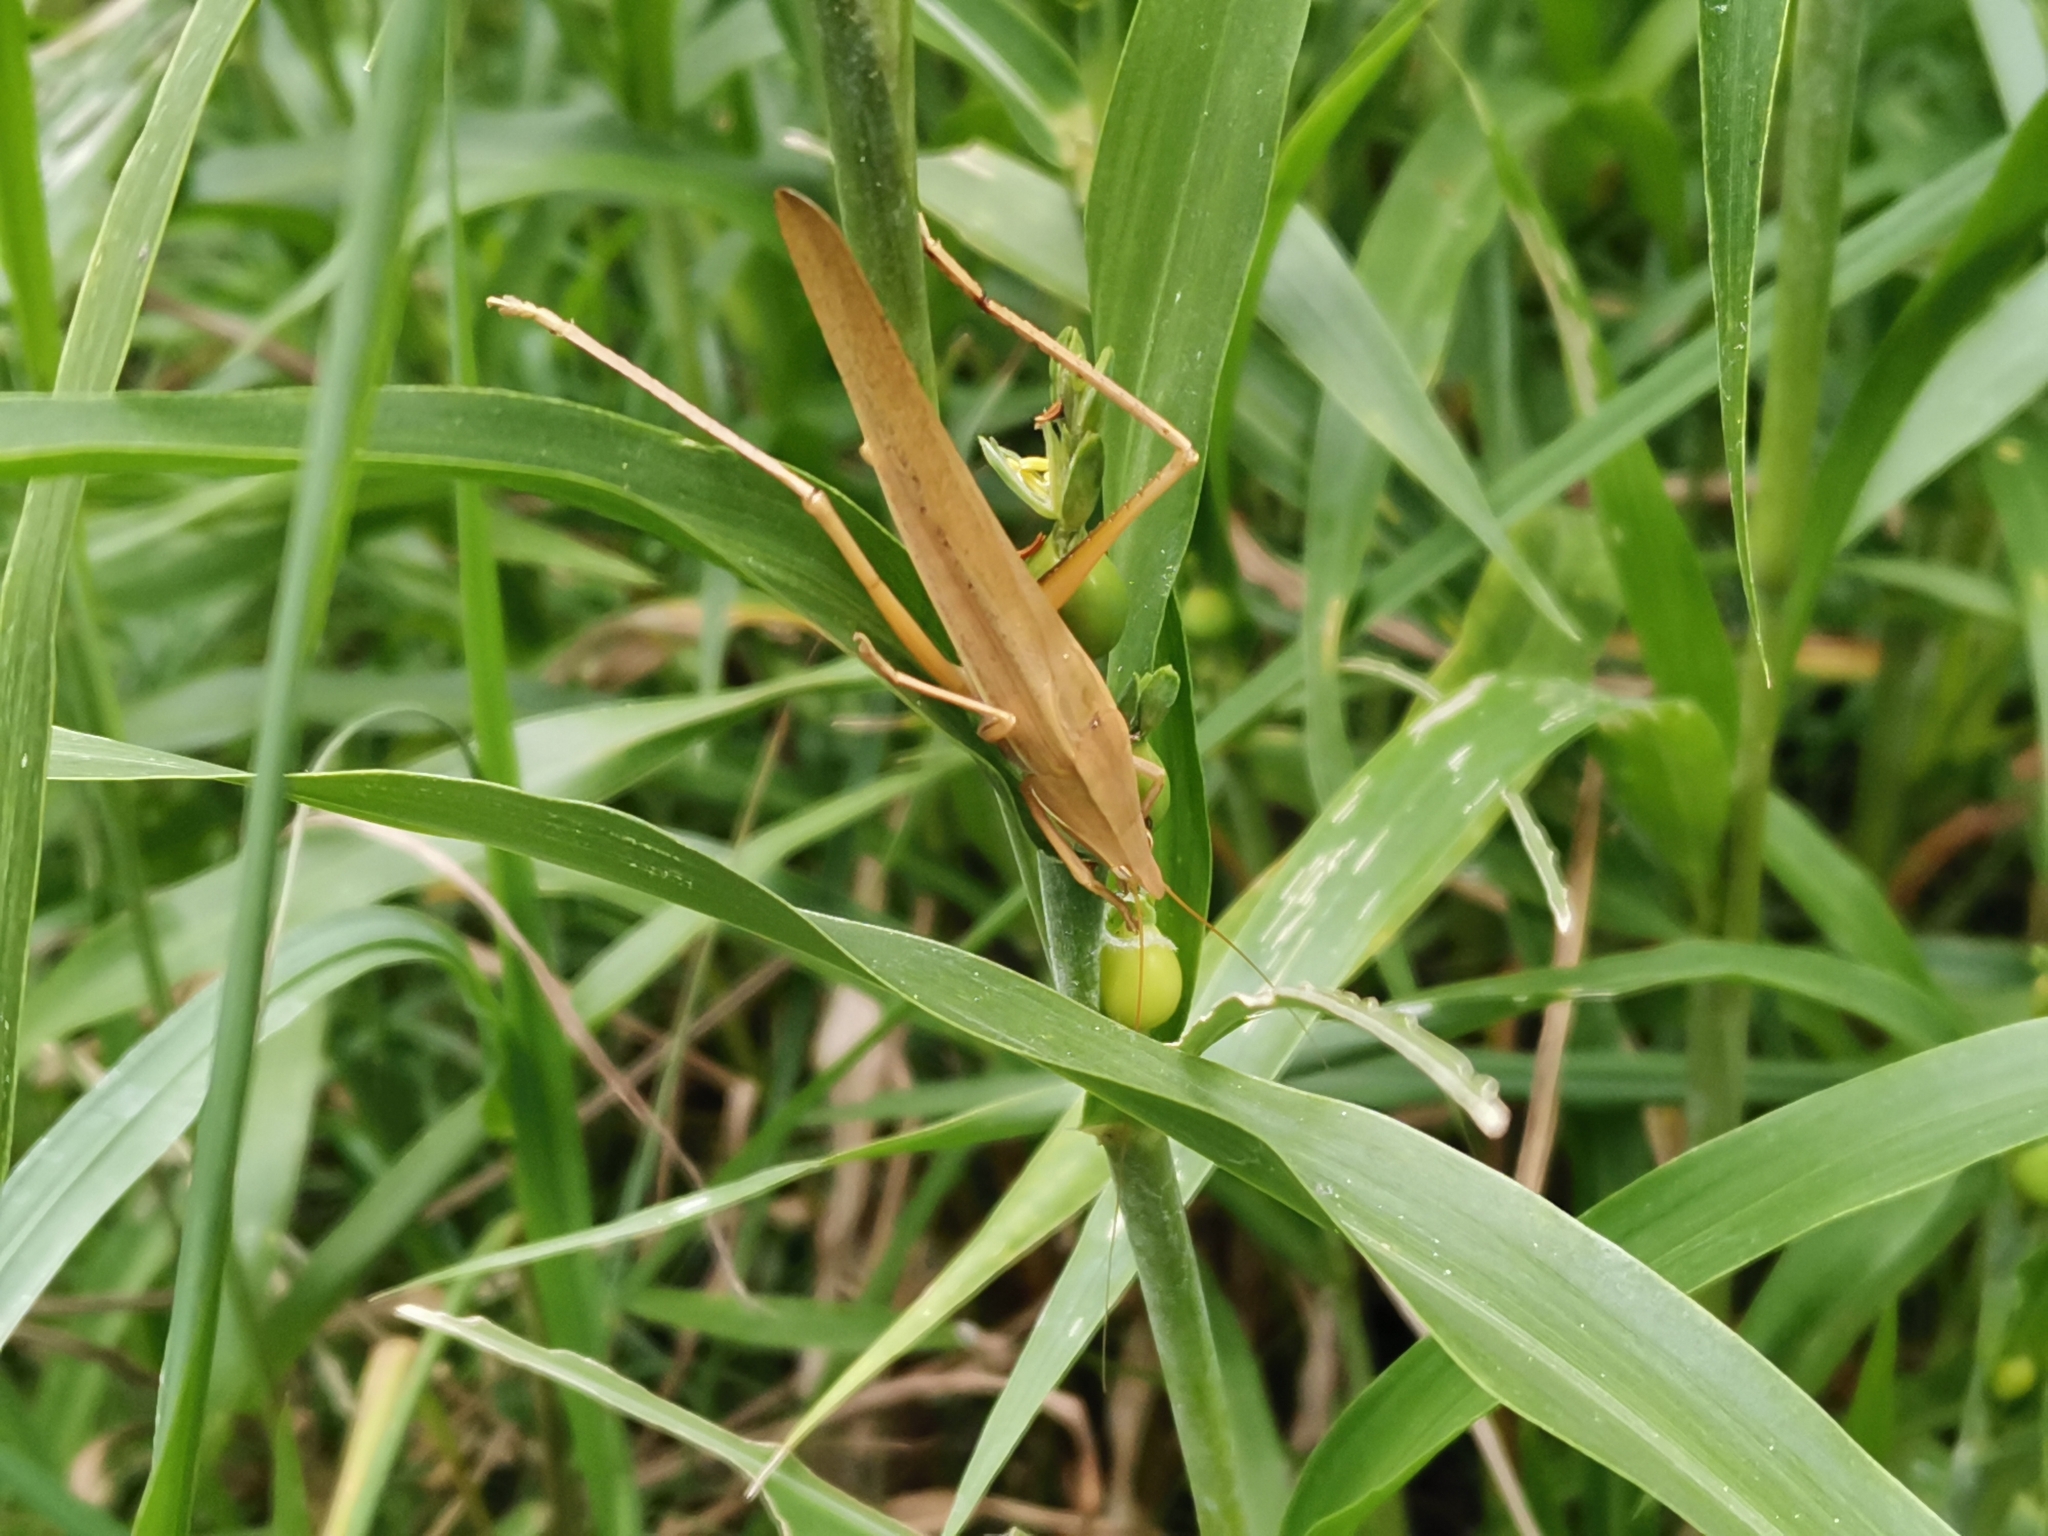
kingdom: Animalia
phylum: Arthropoda
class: Insecta
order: Orthoptera
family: Tettigoniidae
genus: Euconocephalus
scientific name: Euconocephalus varius
